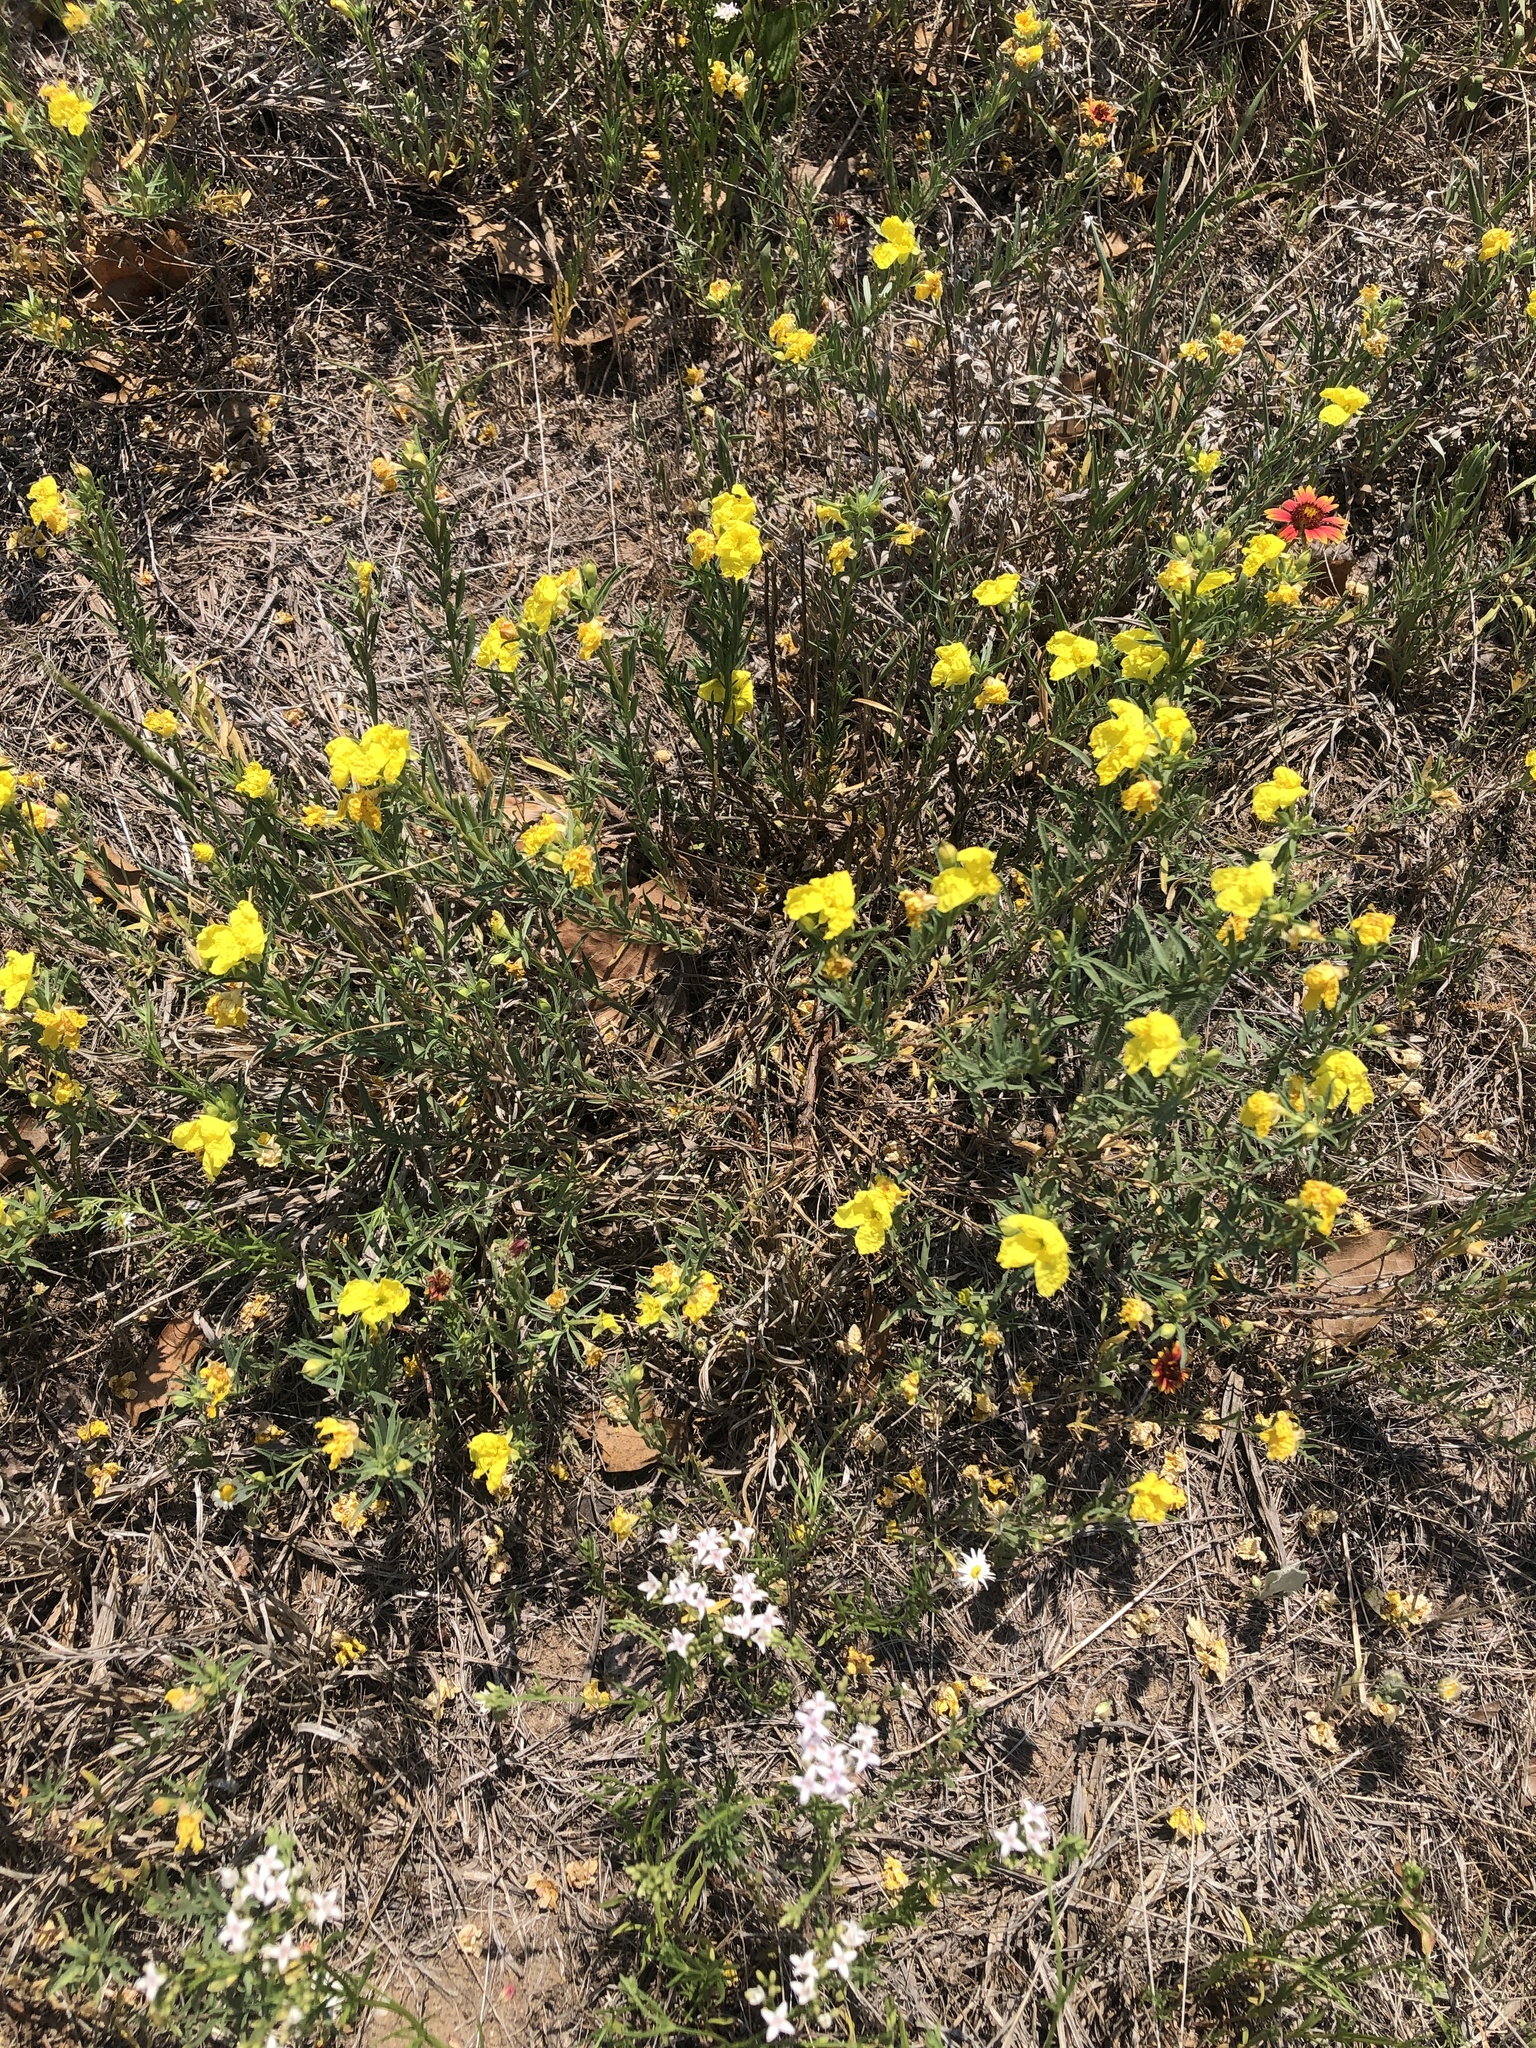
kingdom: Plantae
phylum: Tracheophyta
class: Magnoliopsida
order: Myrtales
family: Onagraceae
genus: Oenothera
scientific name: Oenothera serrulata
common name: Half-shrub calylophus
